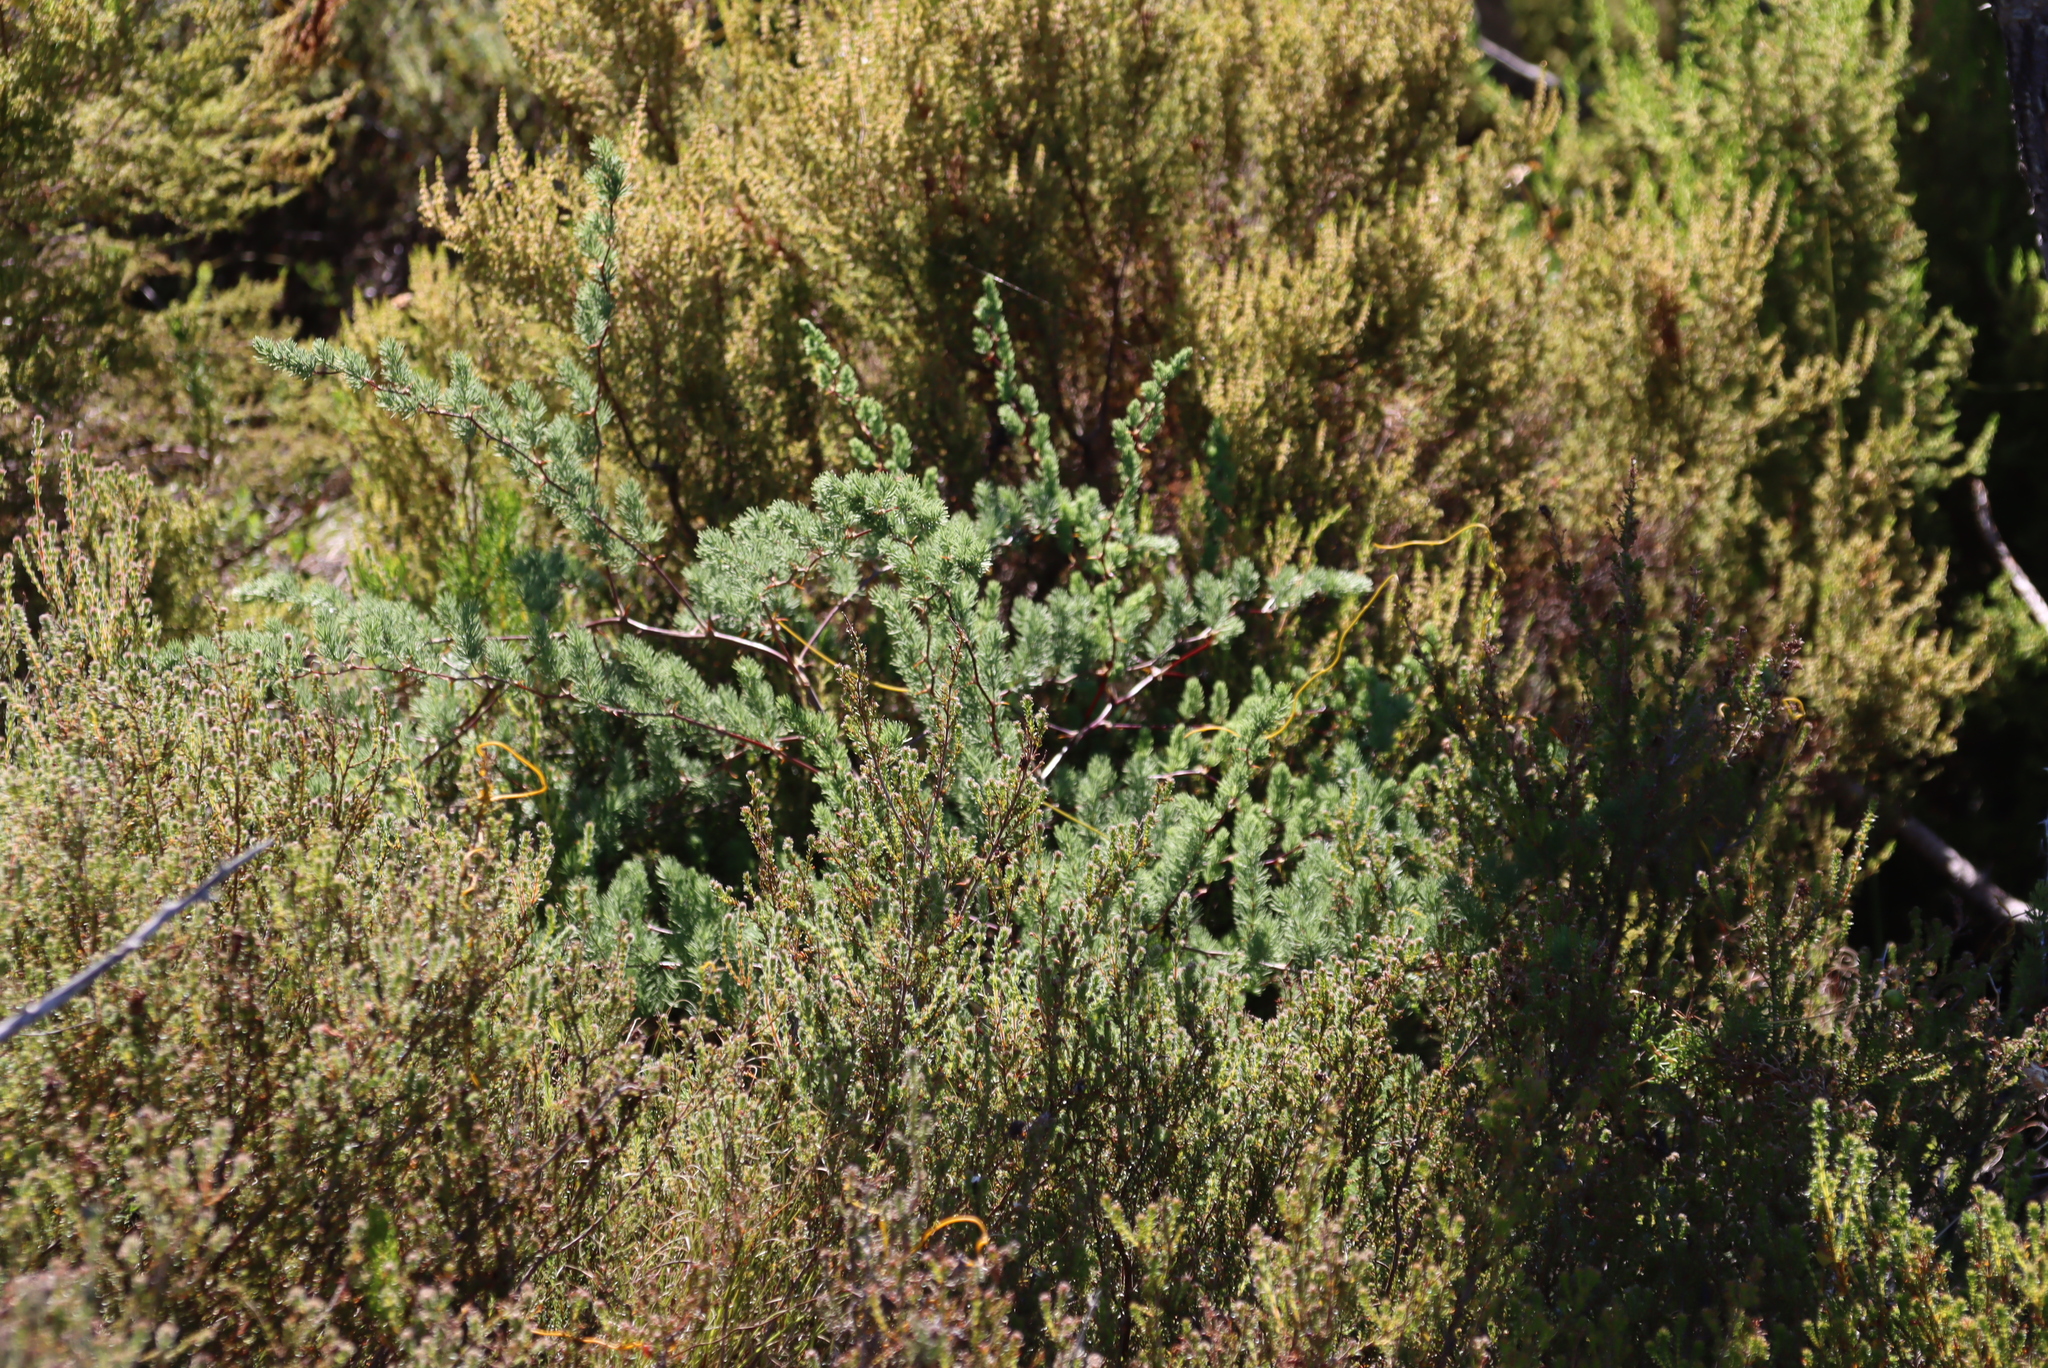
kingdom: Plantae
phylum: Tracheophyta
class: Liliopsida
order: Asparagales
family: Asparagaceae
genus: Asparagus
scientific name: Asparagus rubicundus
